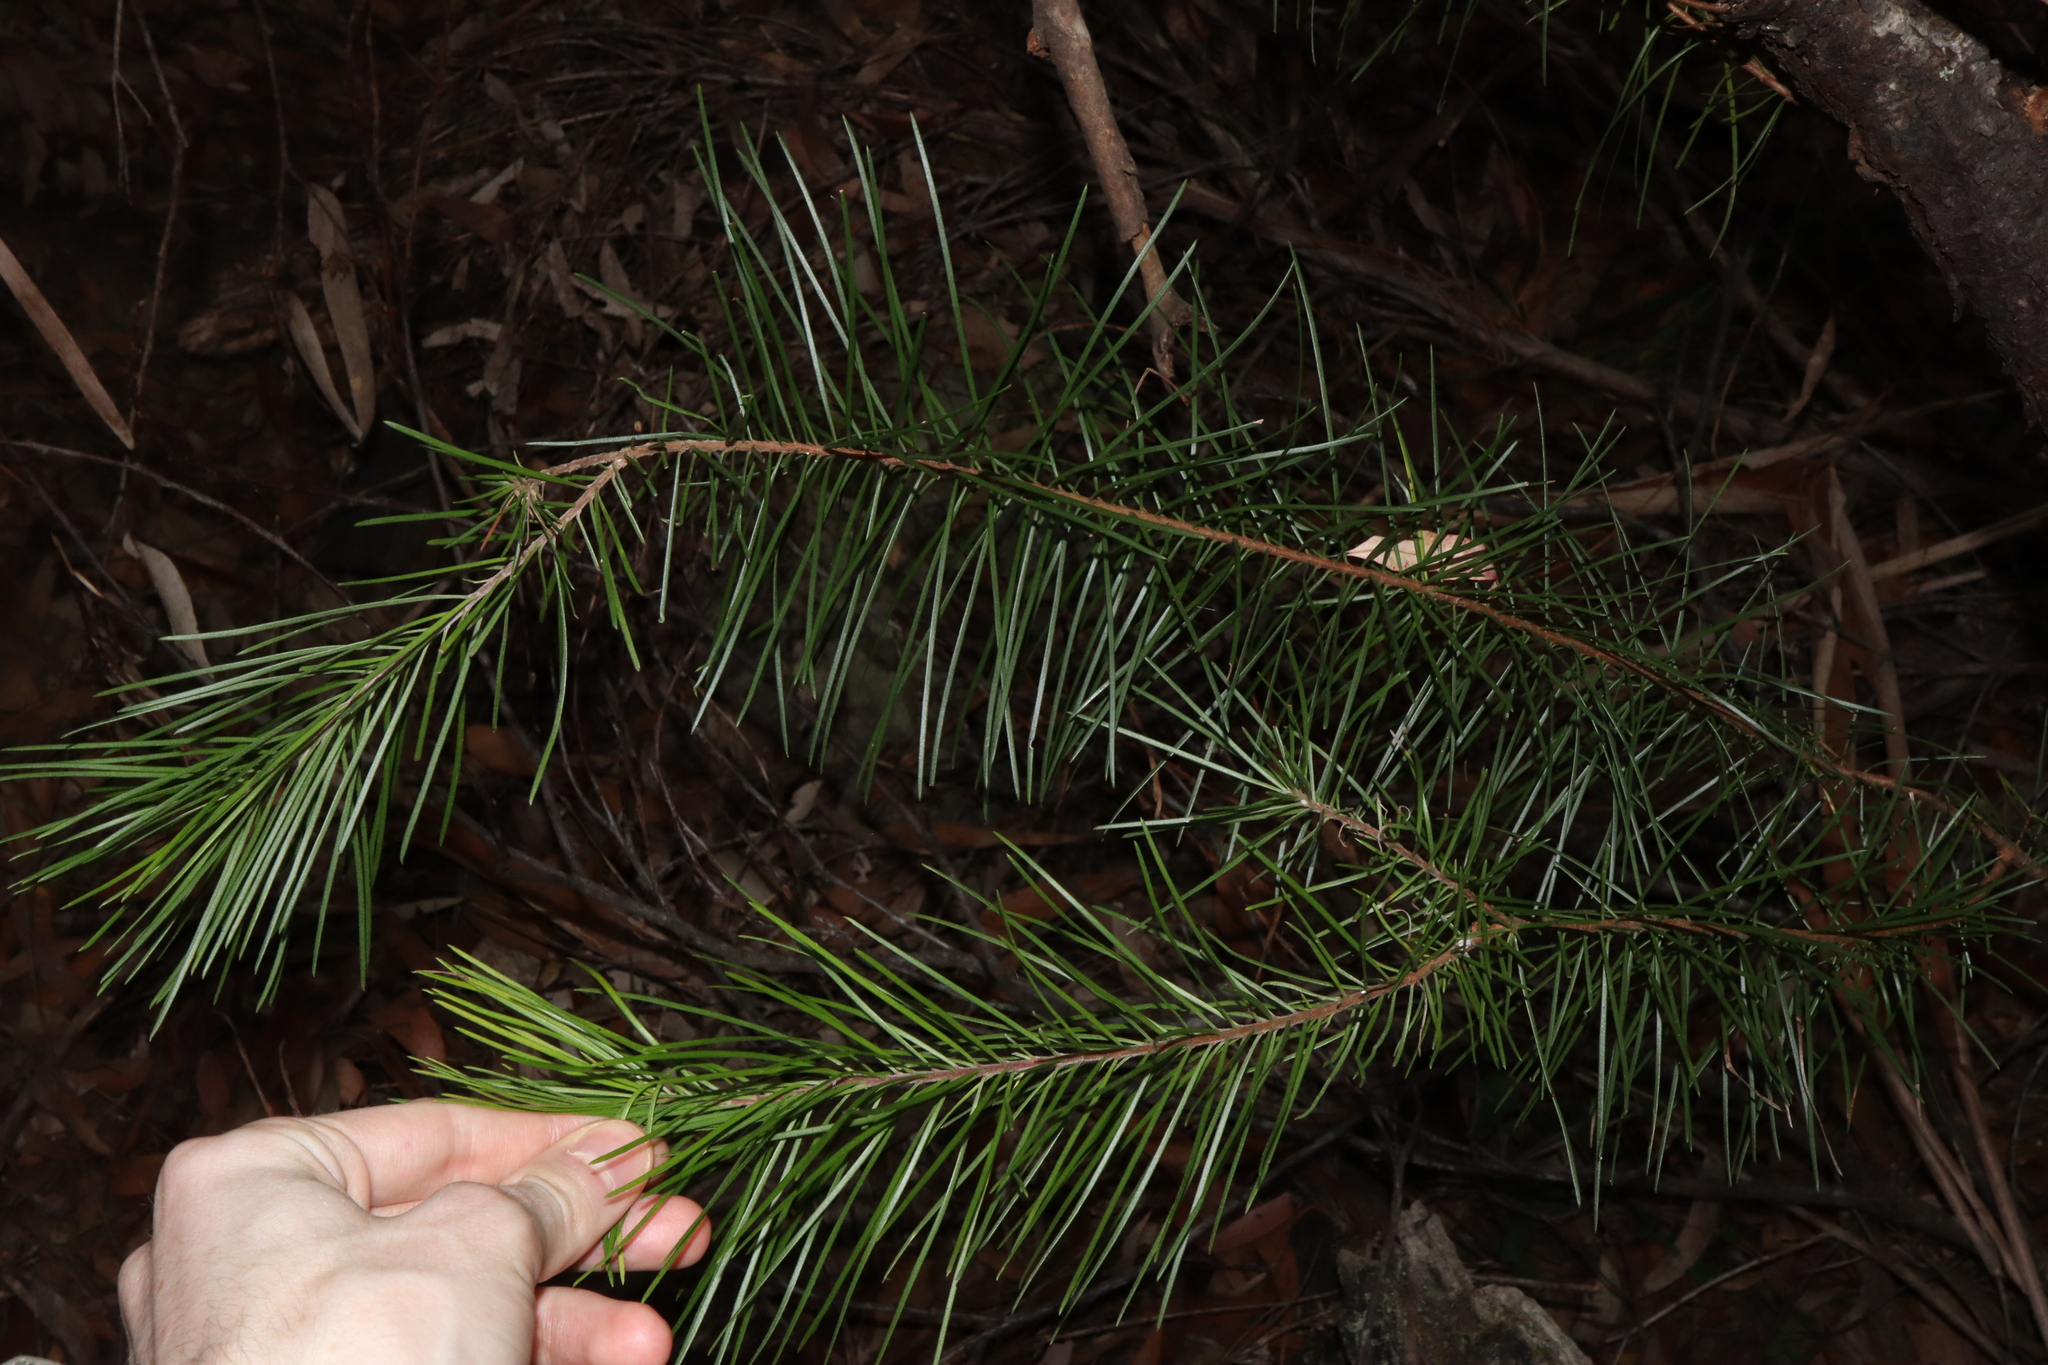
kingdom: Plantae
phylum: Tracheophyta
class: Magnoliopsida
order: Proteales
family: Proteaceae
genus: Persoonia
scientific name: Persoonia linearis
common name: Narrow-leaf geebung
